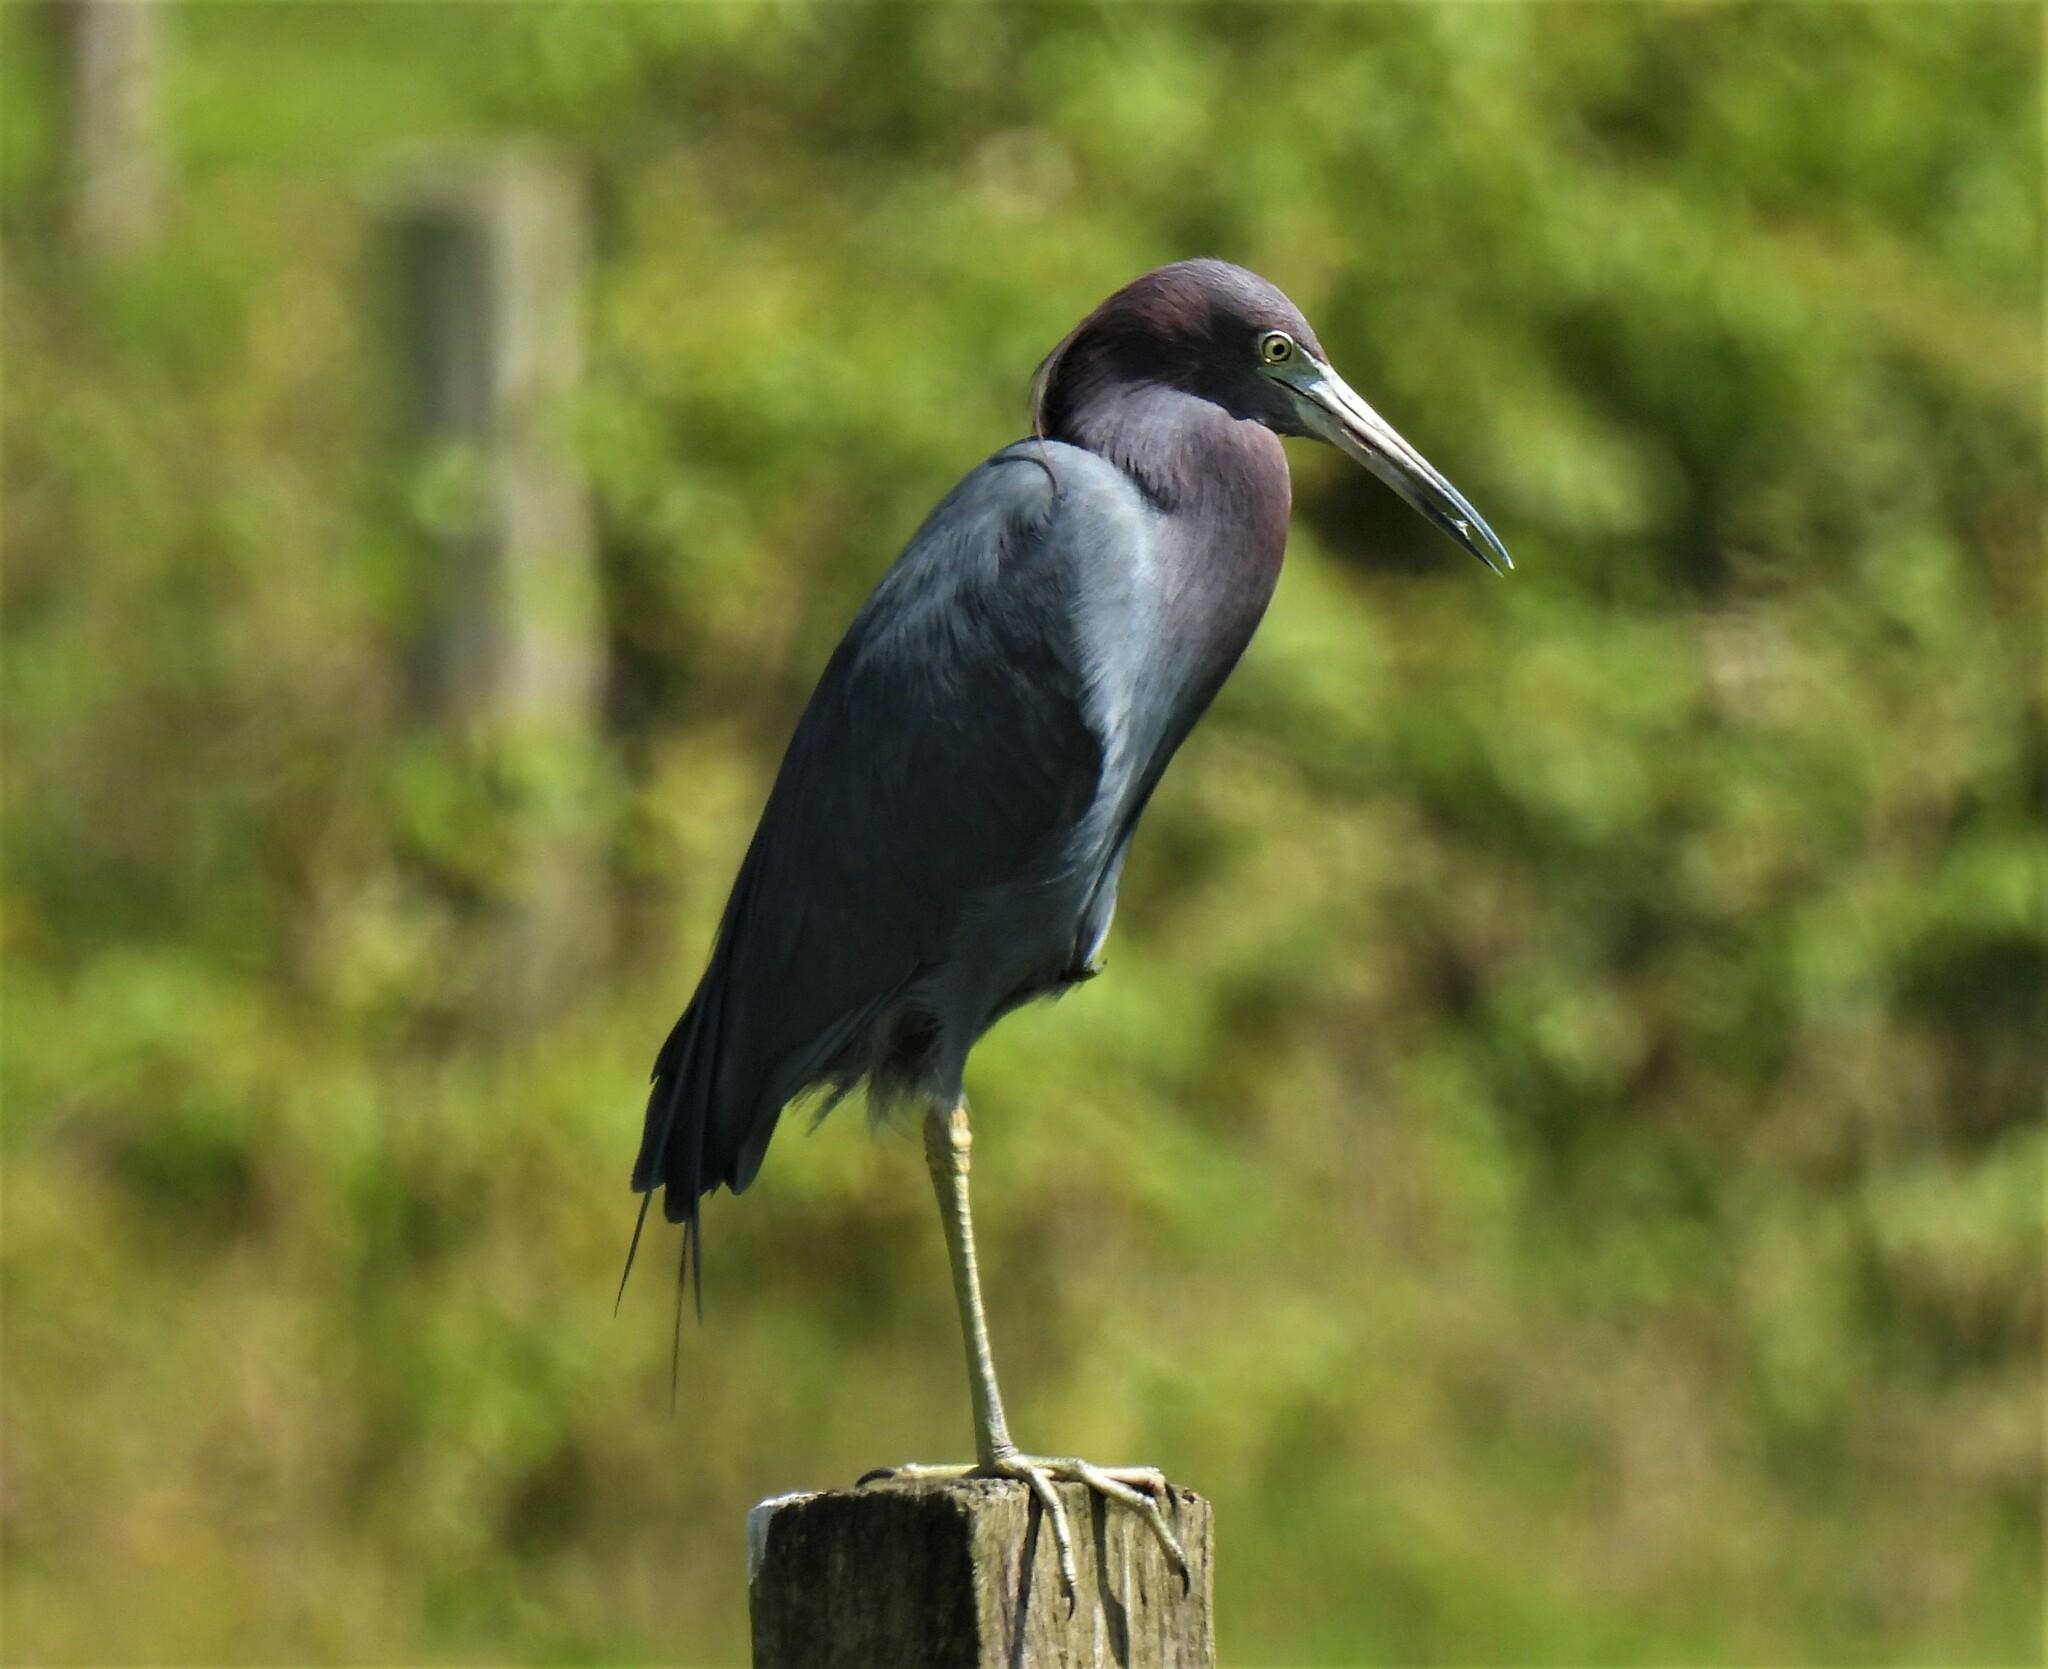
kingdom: Animalia
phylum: Chordata
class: Aves
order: Pelecaniformes
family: Ardeidae
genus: Egretta
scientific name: Egretta caerulea
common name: Little blue heron
